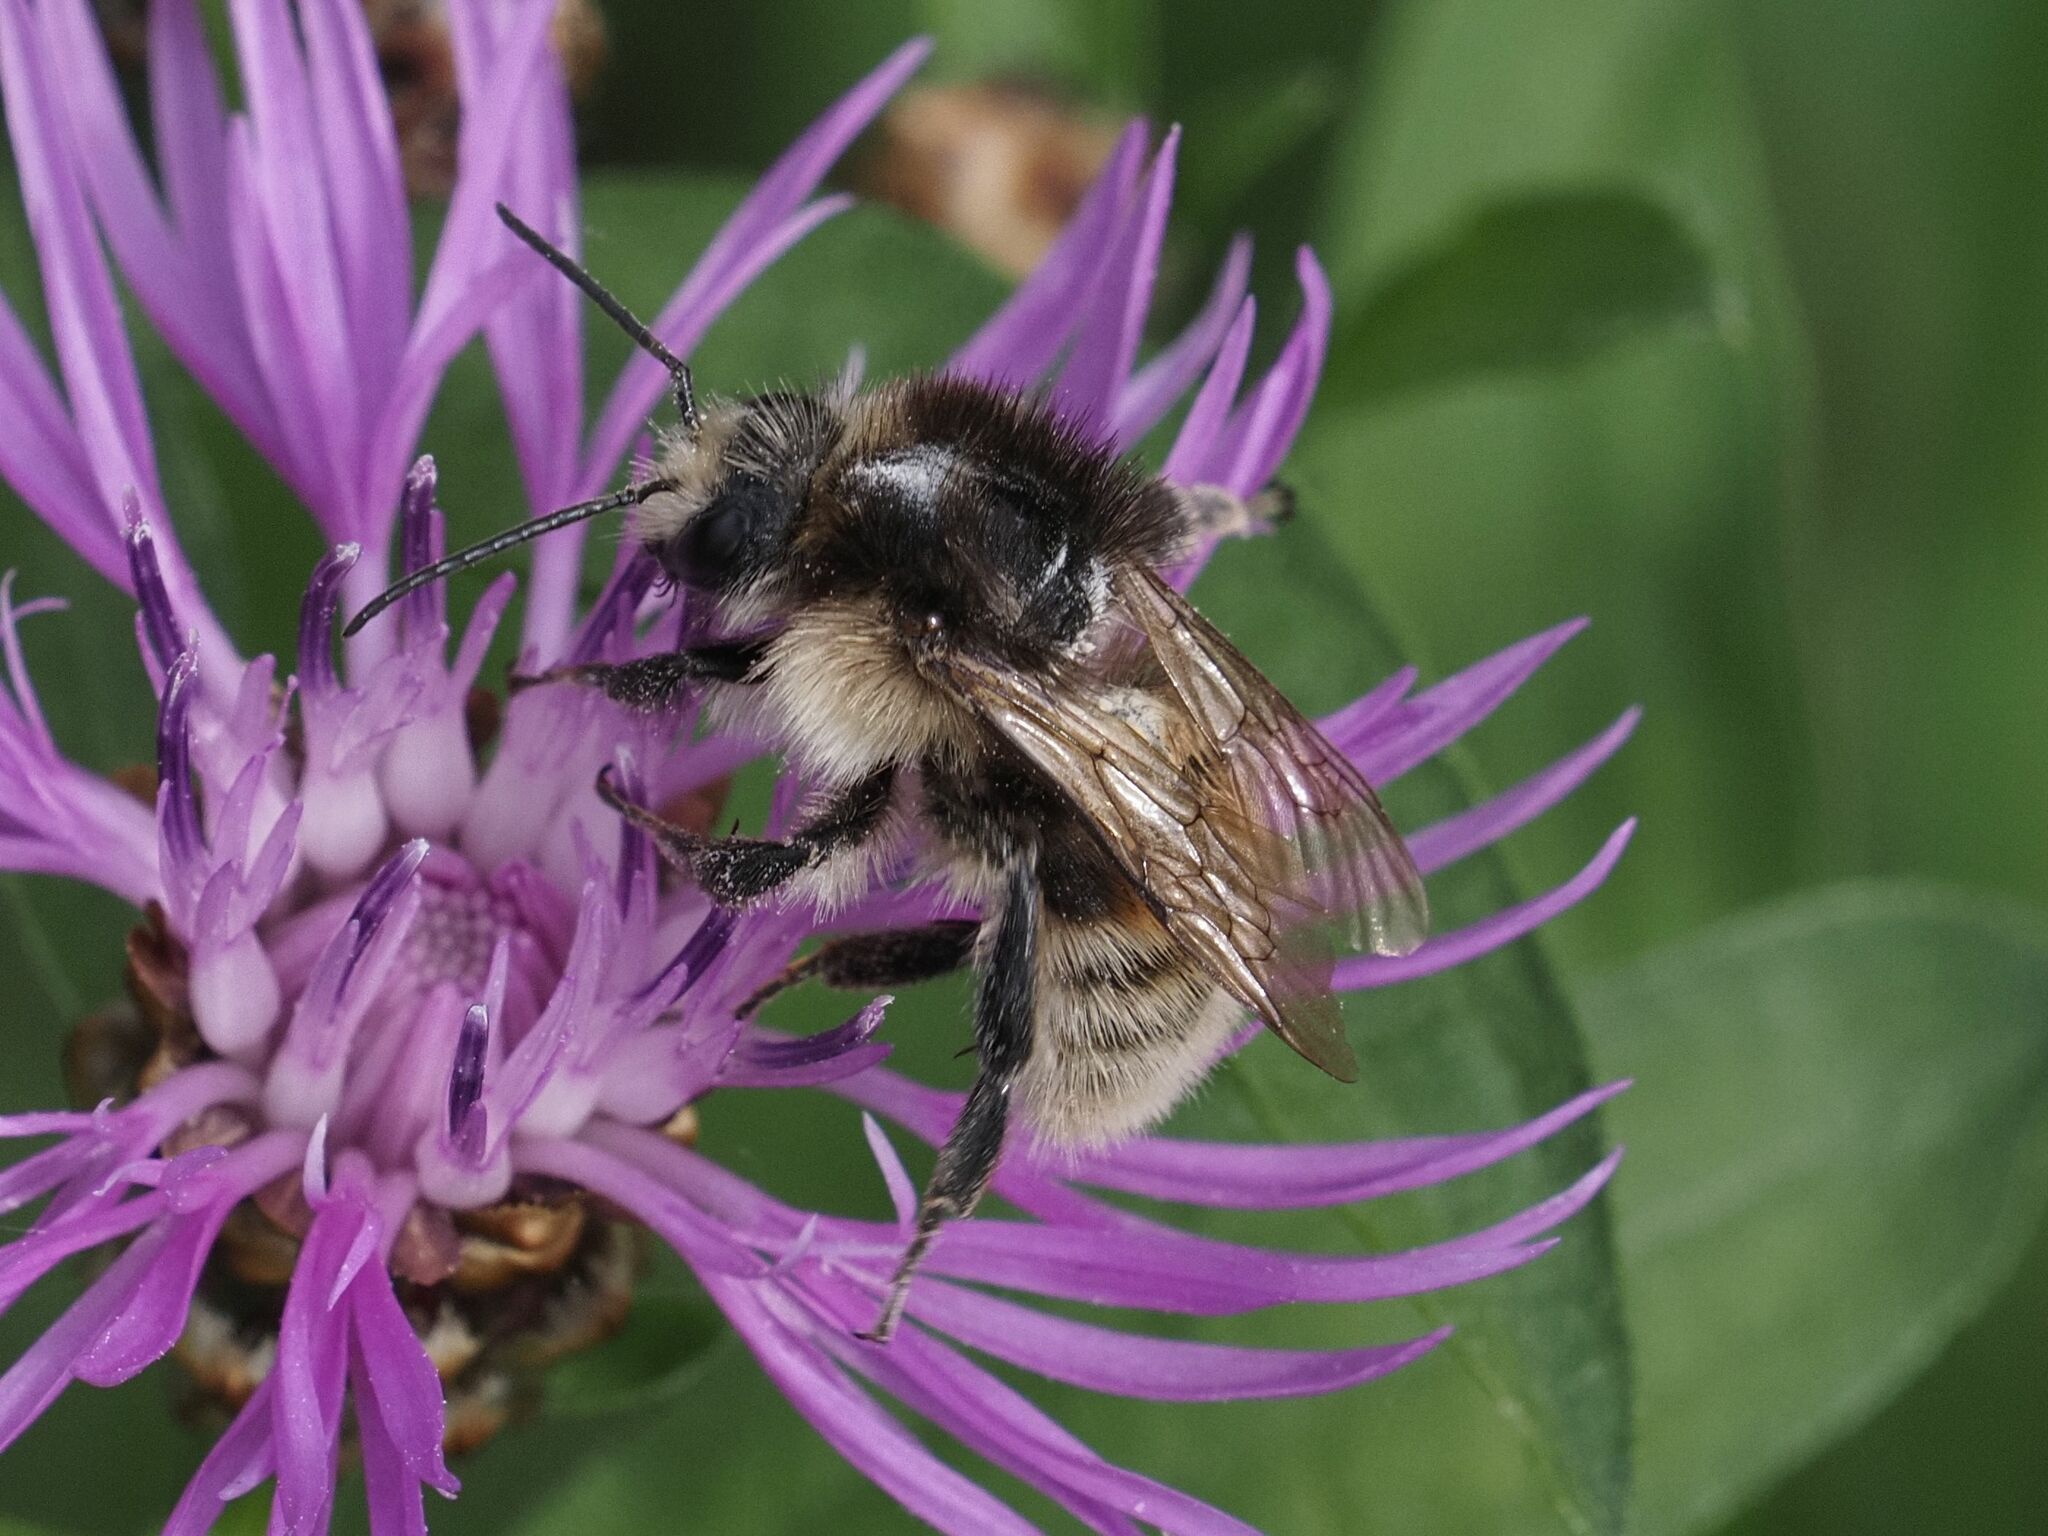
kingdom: Animalia
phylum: Arthropoda
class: Insecta
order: Hymenoptera
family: Apidae
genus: Bombus
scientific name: Bombus humilis
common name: Brown-banded carder-bee
